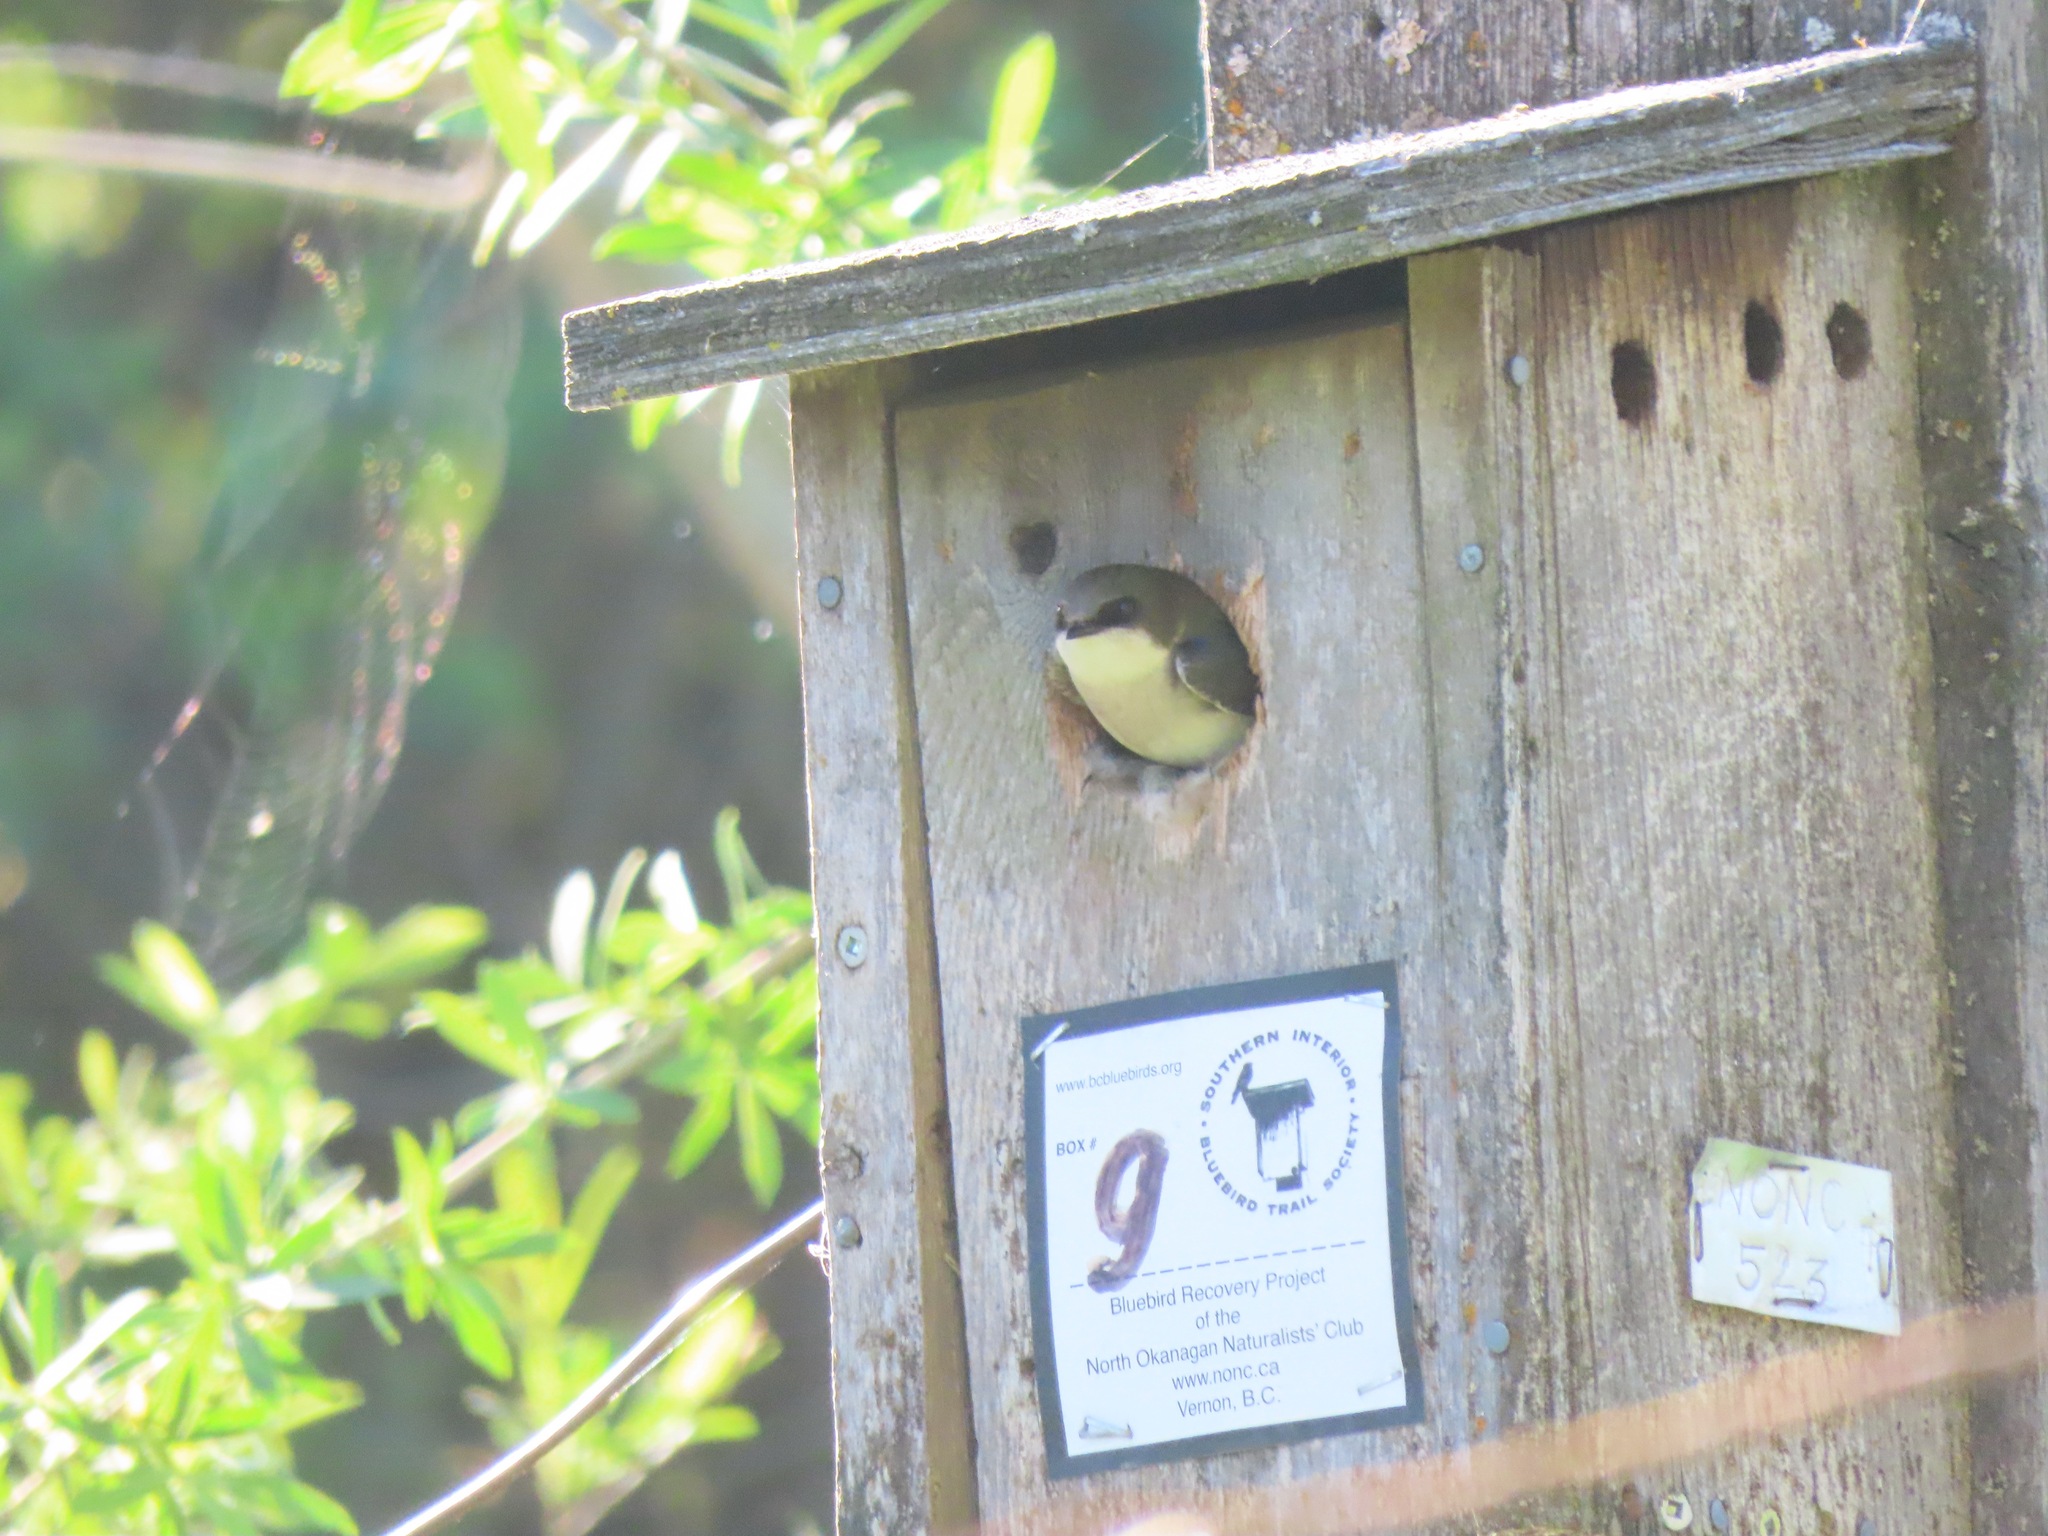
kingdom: Animalia
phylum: Chordata
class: Aves
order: Passeriformes
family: Hirundinidae
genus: Tachycineta
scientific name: Tachycineta bicolor
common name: Tree swallow
